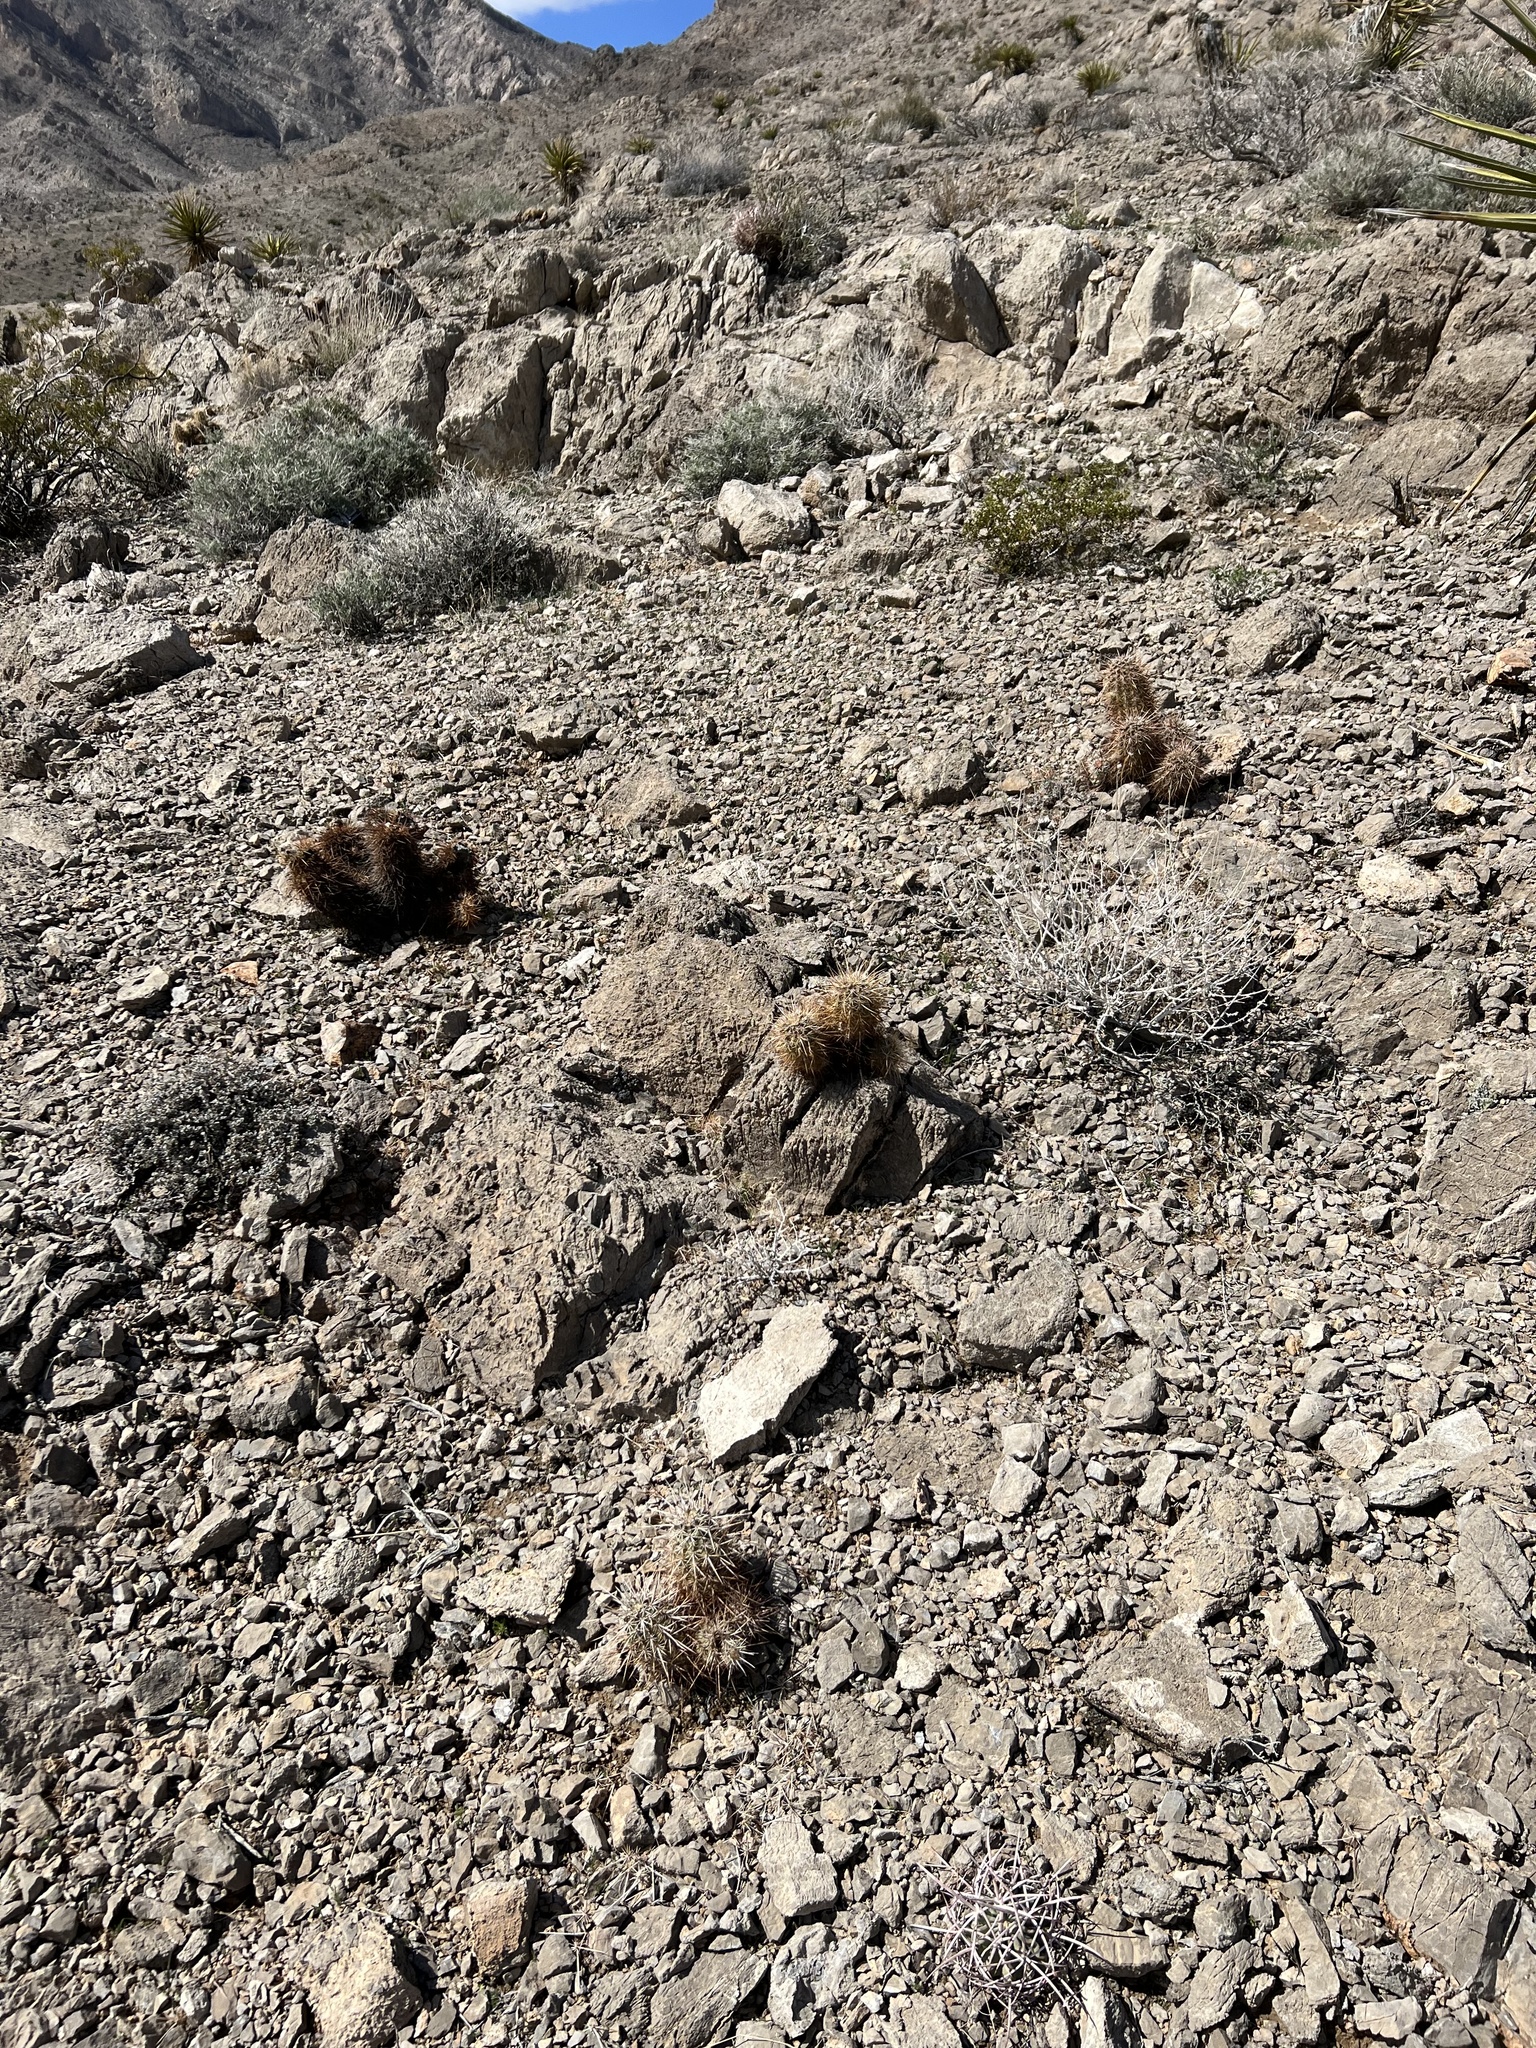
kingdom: Plantae
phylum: Tracheophyta
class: Magnoliopsida
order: Caryophyllales
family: Cactaceae
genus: Echinocereus
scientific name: Echinocereus engelmannii
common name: Engelmann's hedgehog cactus
